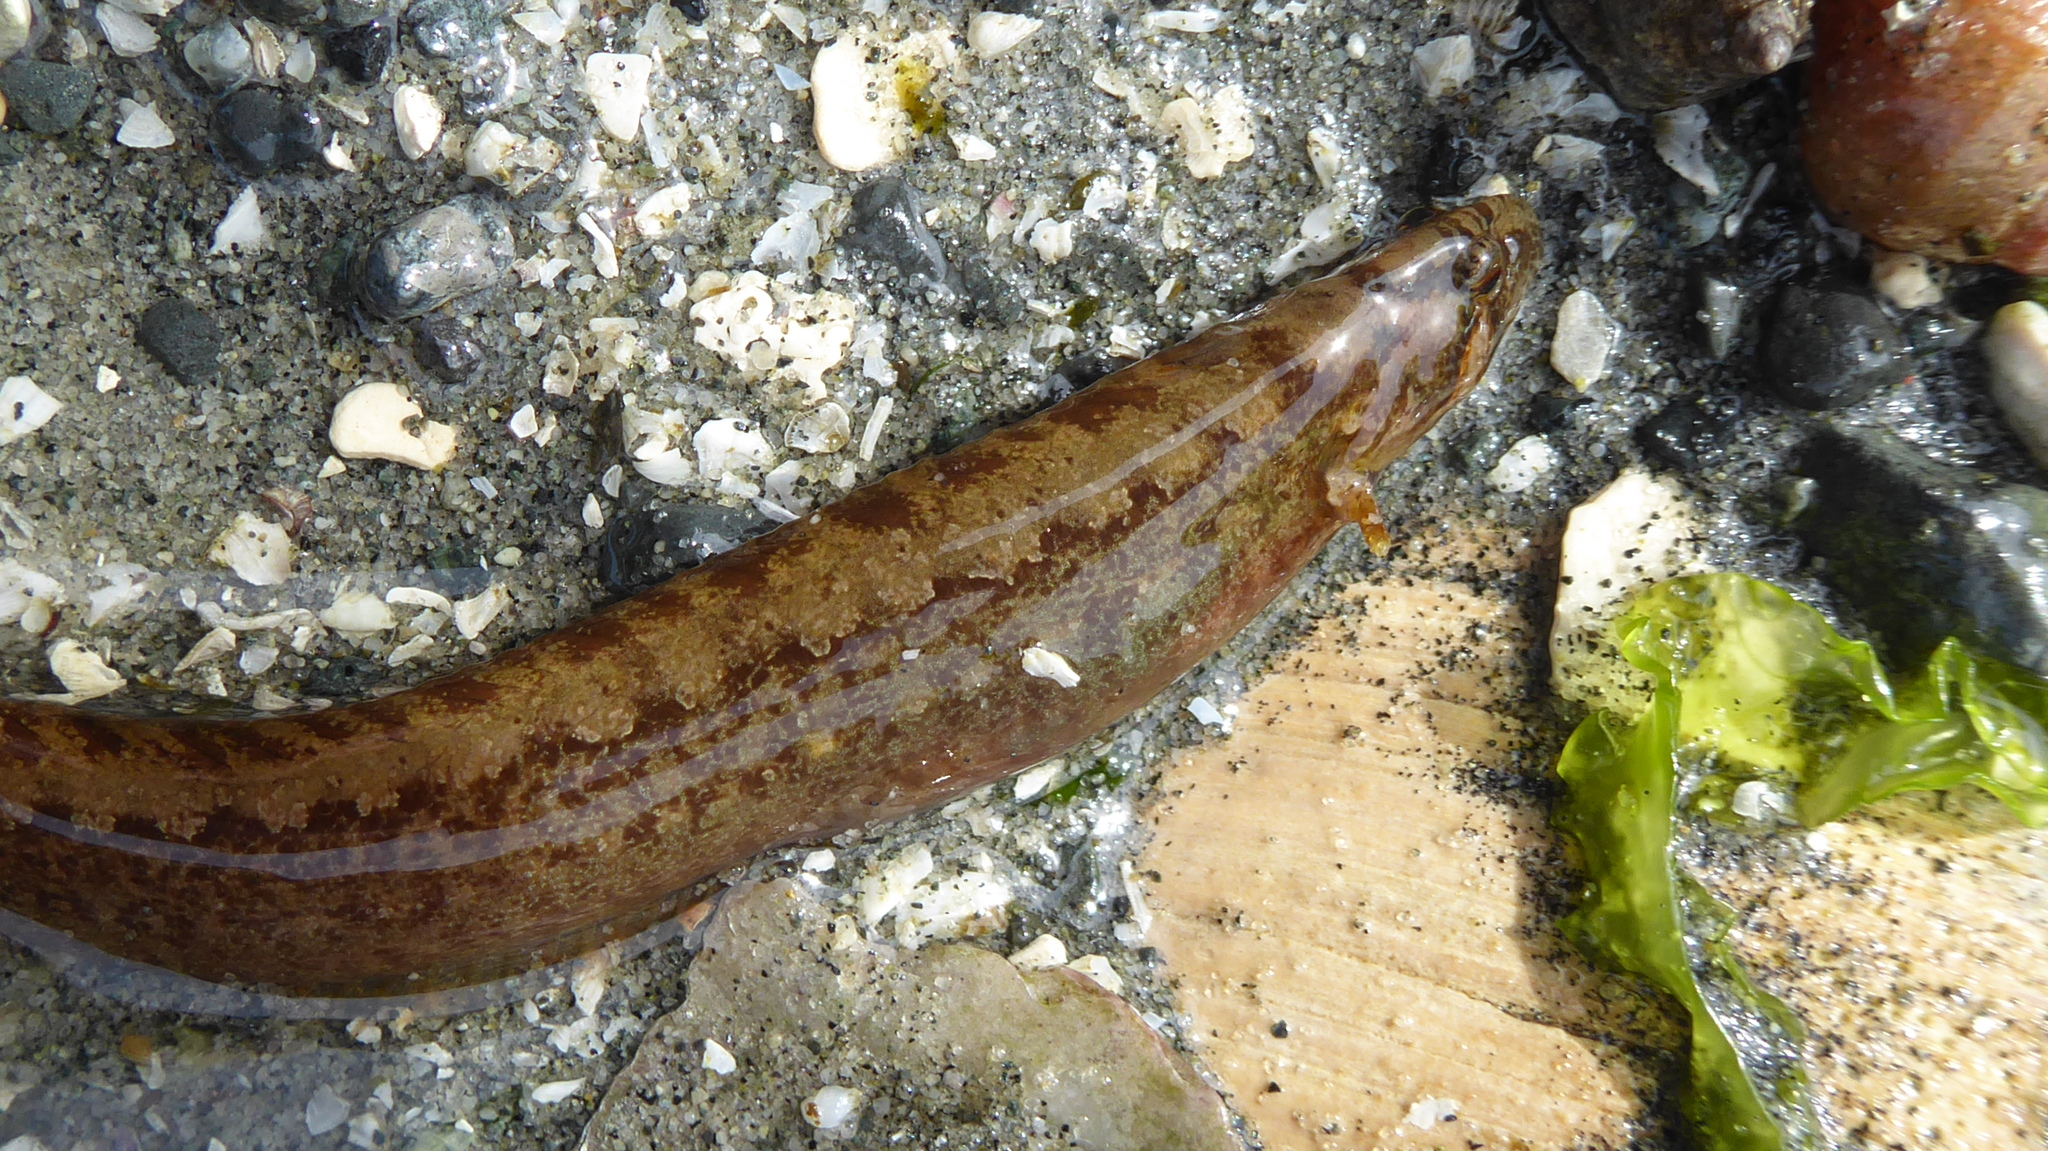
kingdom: Animalia
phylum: Chordata
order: Perciformes
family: Stichaeidae
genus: Anoplarchus
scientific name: Anoplarchus purpurescens
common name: High cockscomb
